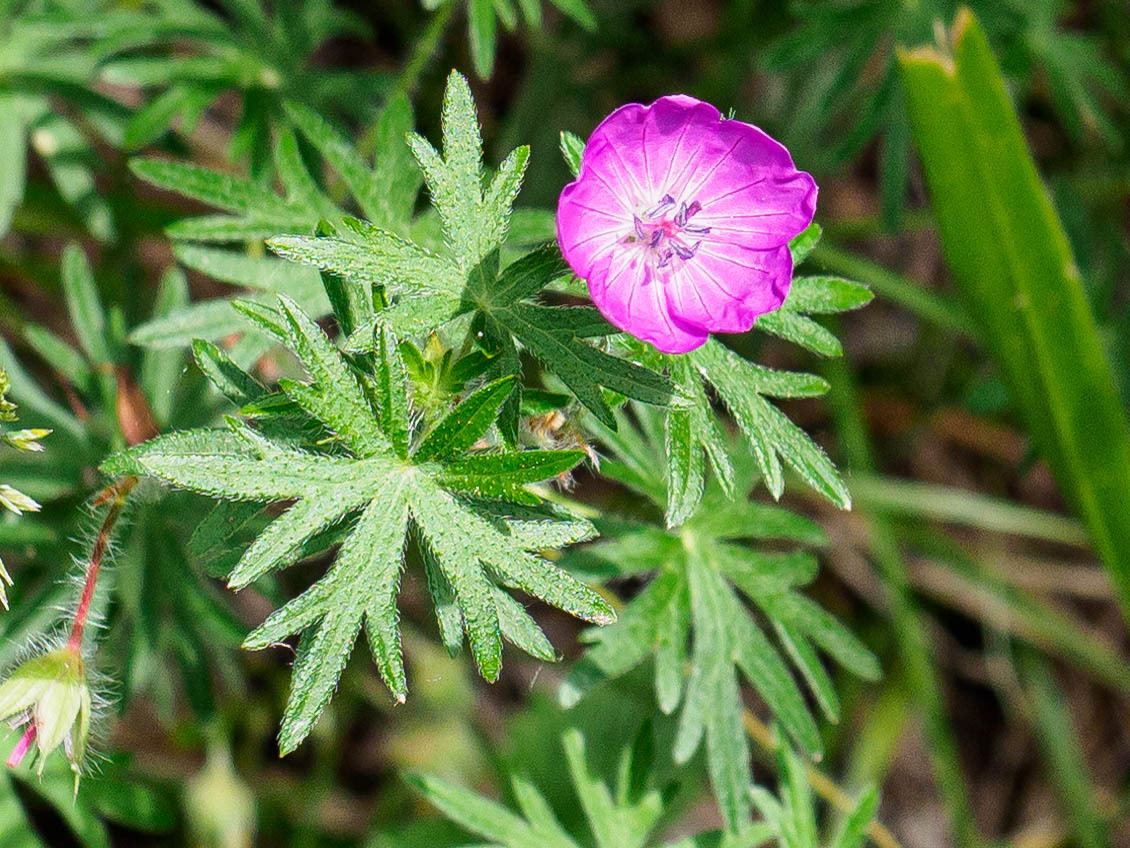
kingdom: Plantae
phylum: Tracheophyta
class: Magnoliopsida
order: Geraniales
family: Geraniaceae
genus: Geranium
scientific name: Geranium sanguineum
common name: Bloody crane's-bill
